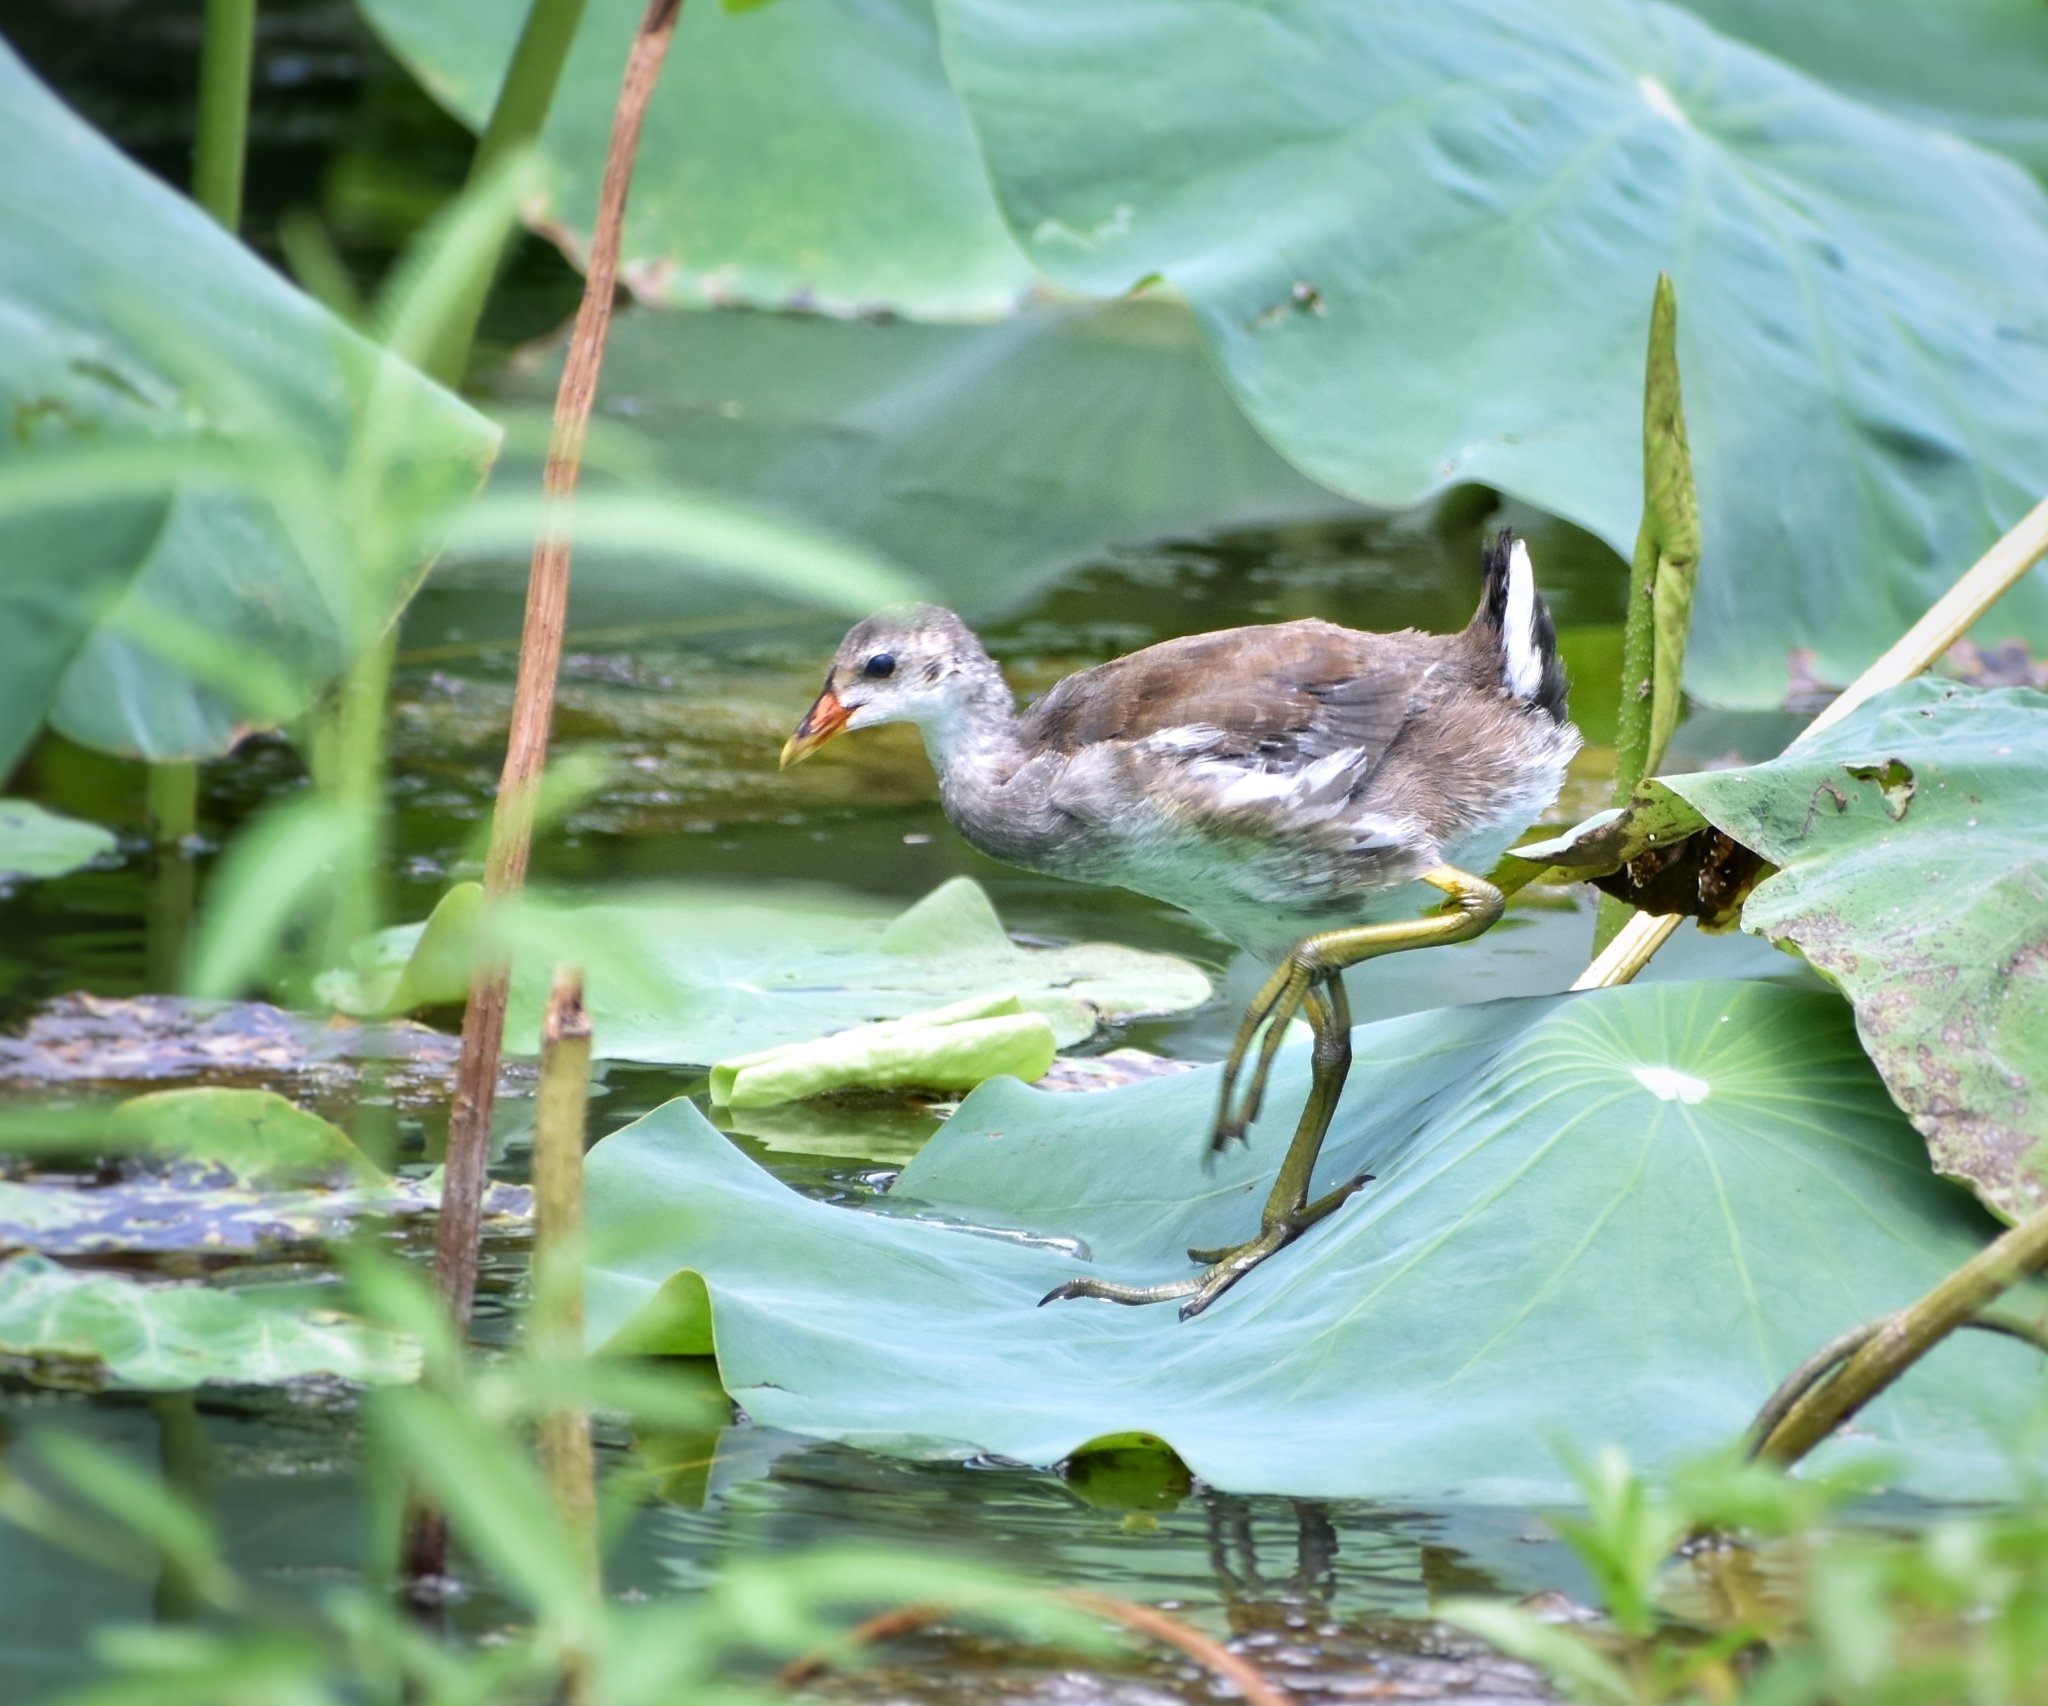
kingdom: Animalia
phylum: Chordata
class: Aves
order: Gruiformes
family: Rallidae
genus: Gallinula
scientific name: Gallinula chloropus
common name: Common moorhen
